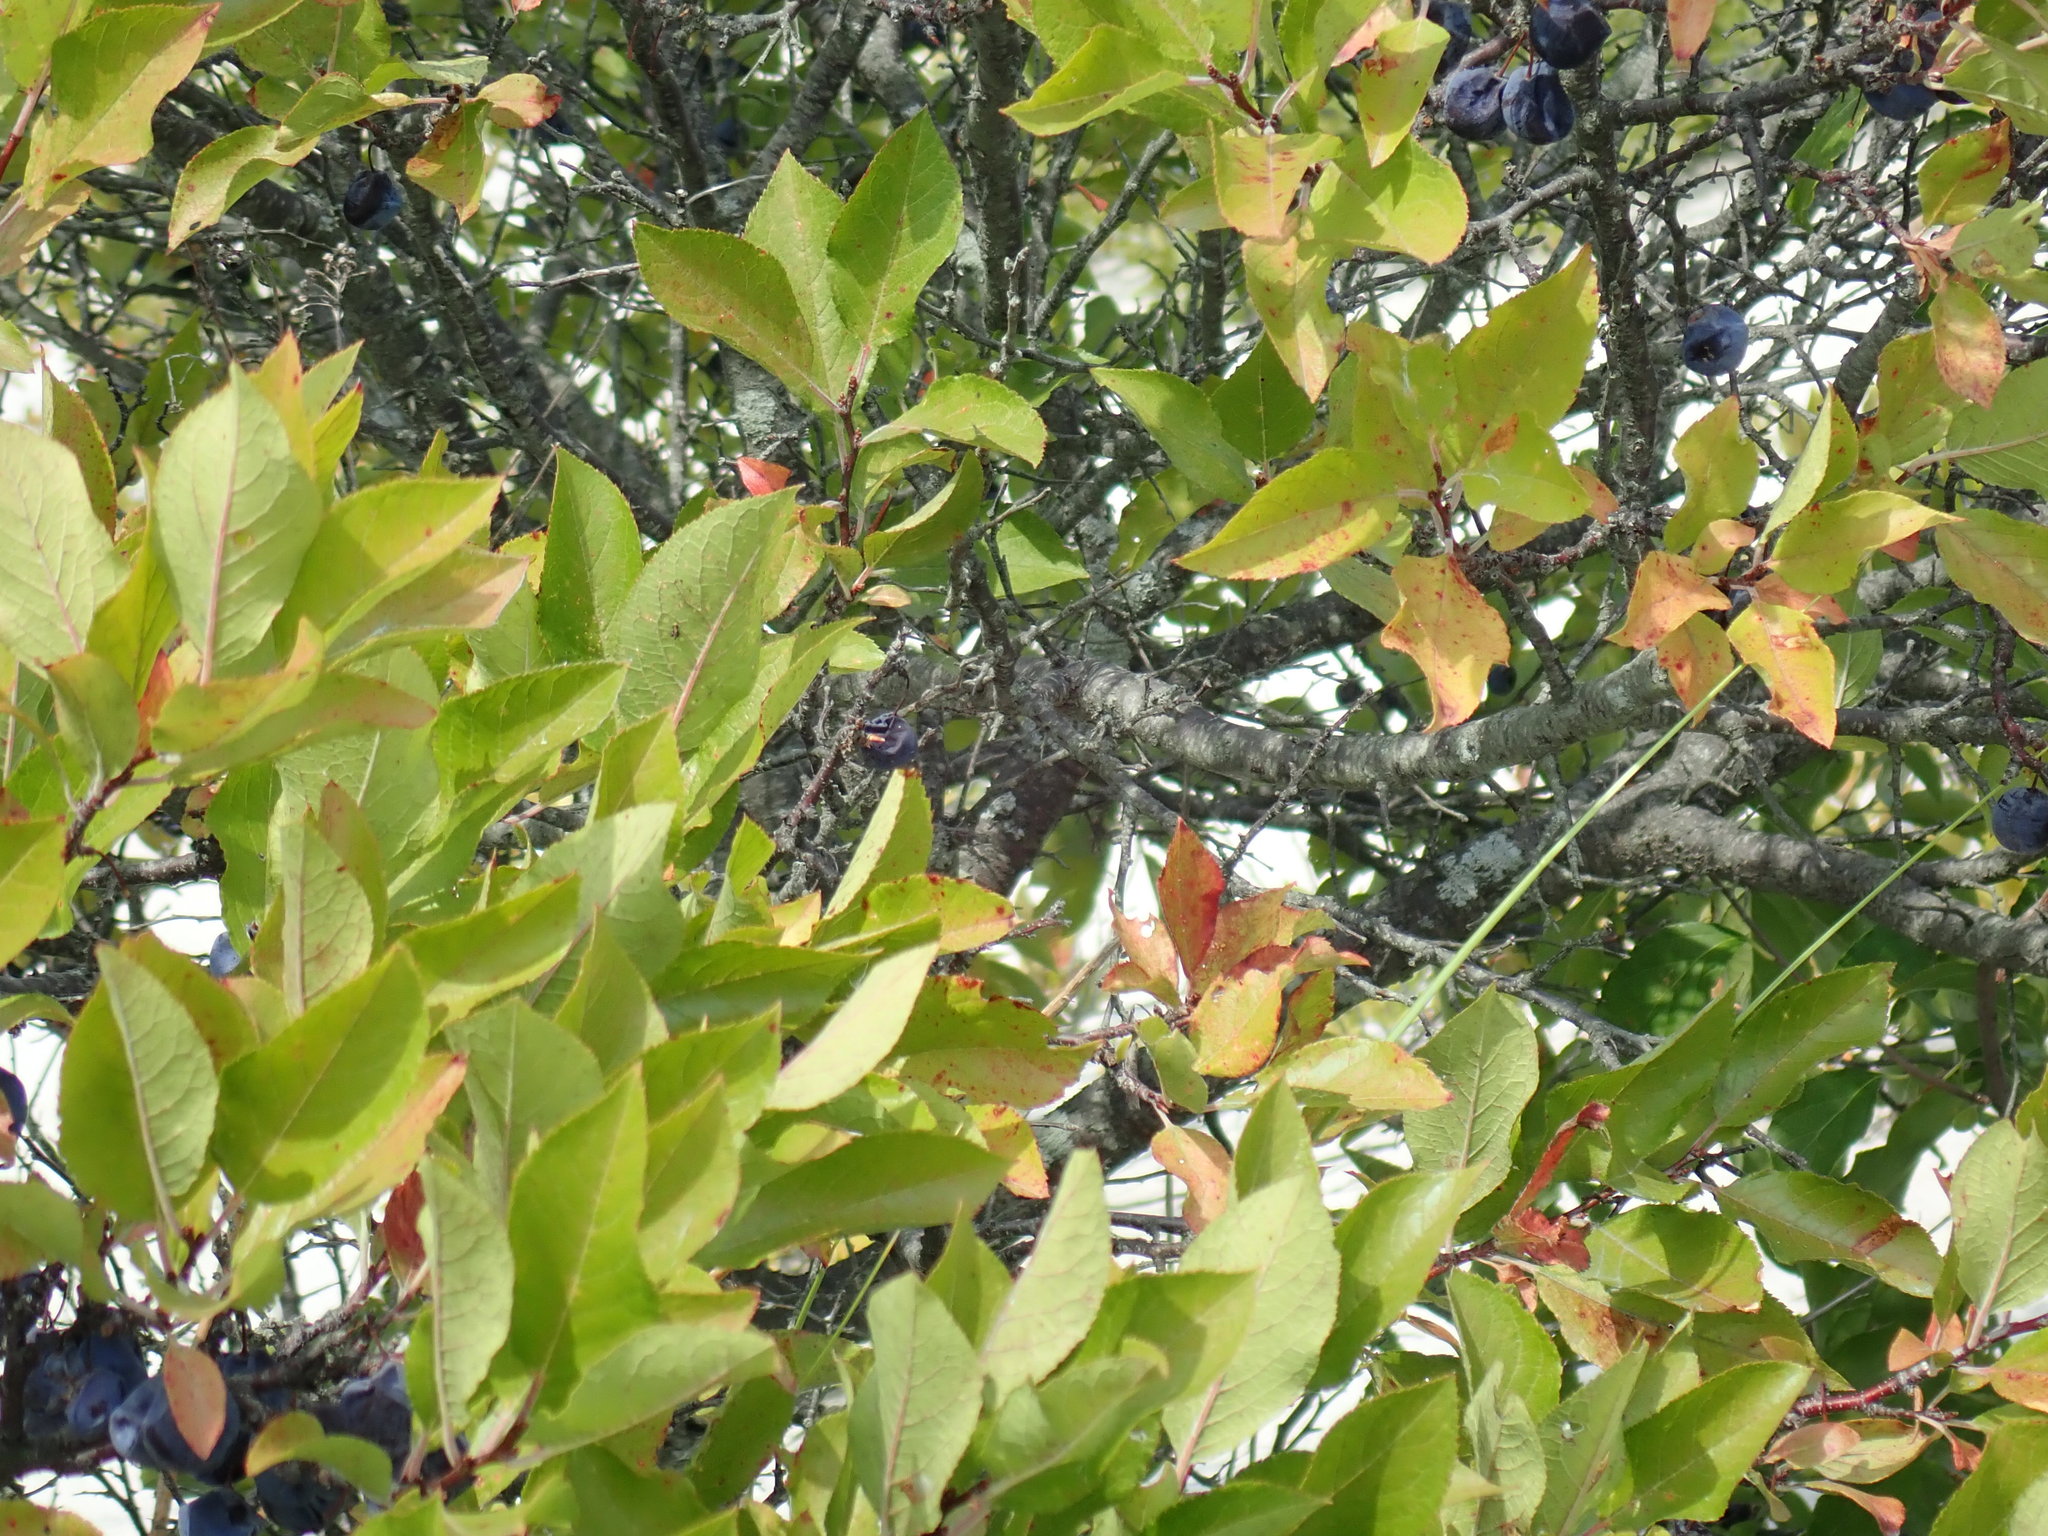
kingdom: Plantae
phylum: Tracheophyta
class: Magnoliopsida
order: Rosales
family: Rosaceae
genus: Prunus
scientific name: Prunus maritima
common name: Beach plum
